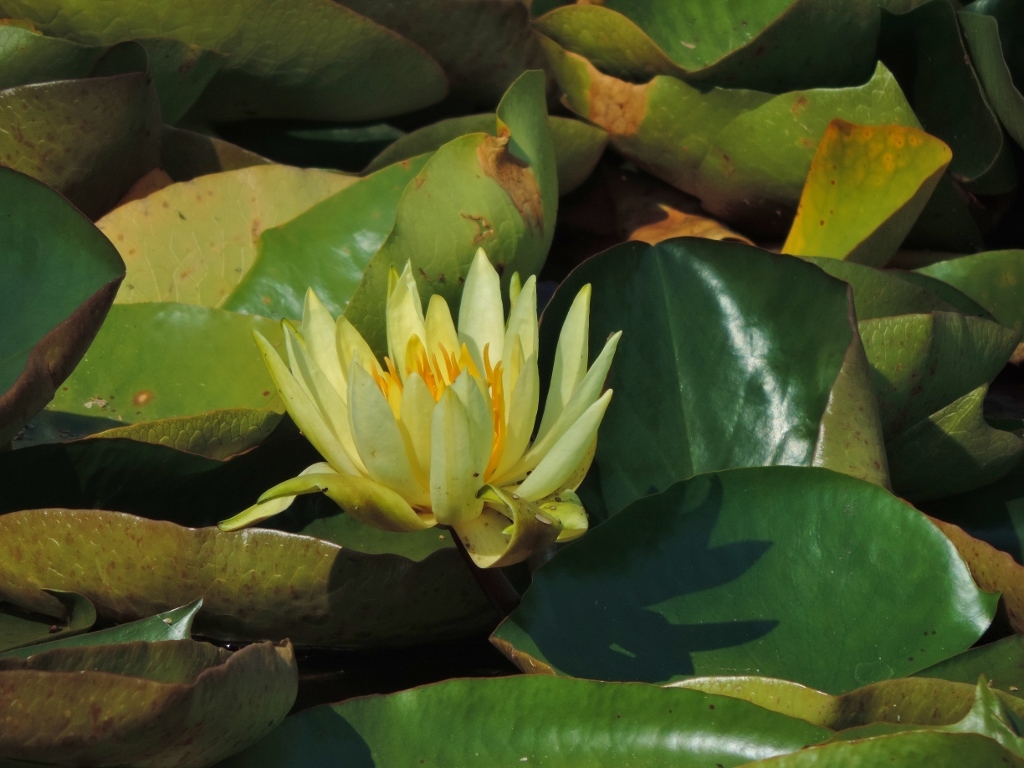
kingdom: Plantae
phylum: Tracheophyta
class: Magnoliopsida
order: Nymphaeales
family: Nymphaeaceae
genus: Nymphaea
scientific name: Nymphaea mexicana
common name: Banana water-lily
